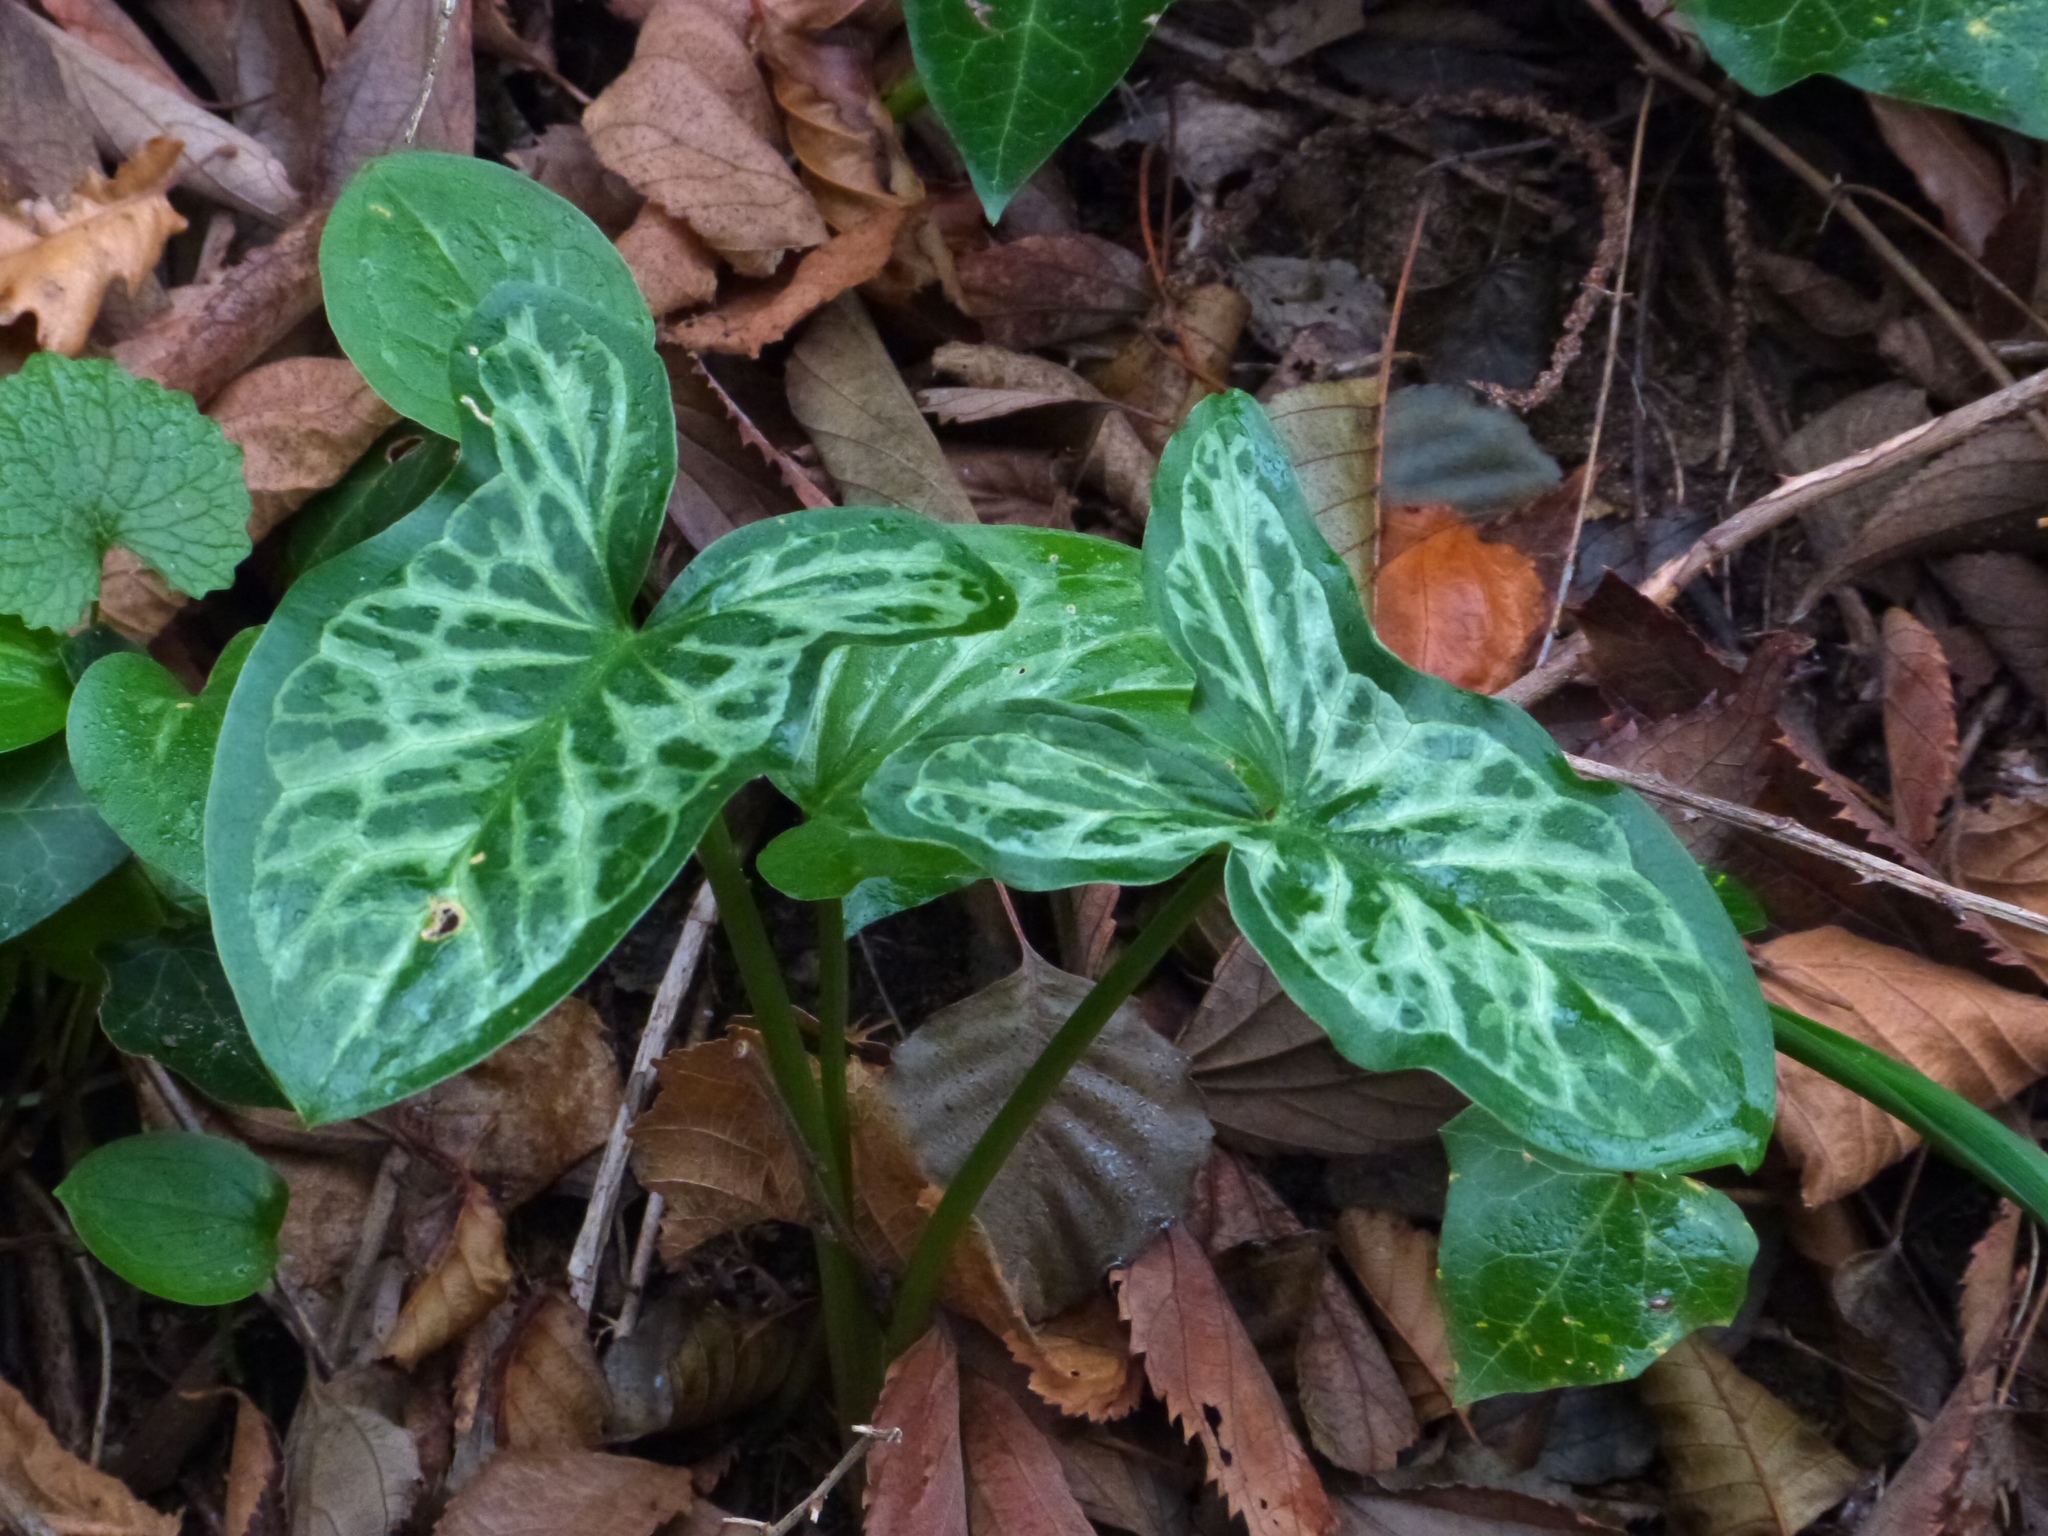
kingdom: Plantae
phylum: Tracheophyta
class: Liliopsida
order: Alismatales
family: Araceae
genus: Arum
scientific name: Arum italicum
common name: Italian lords-and-ladies
